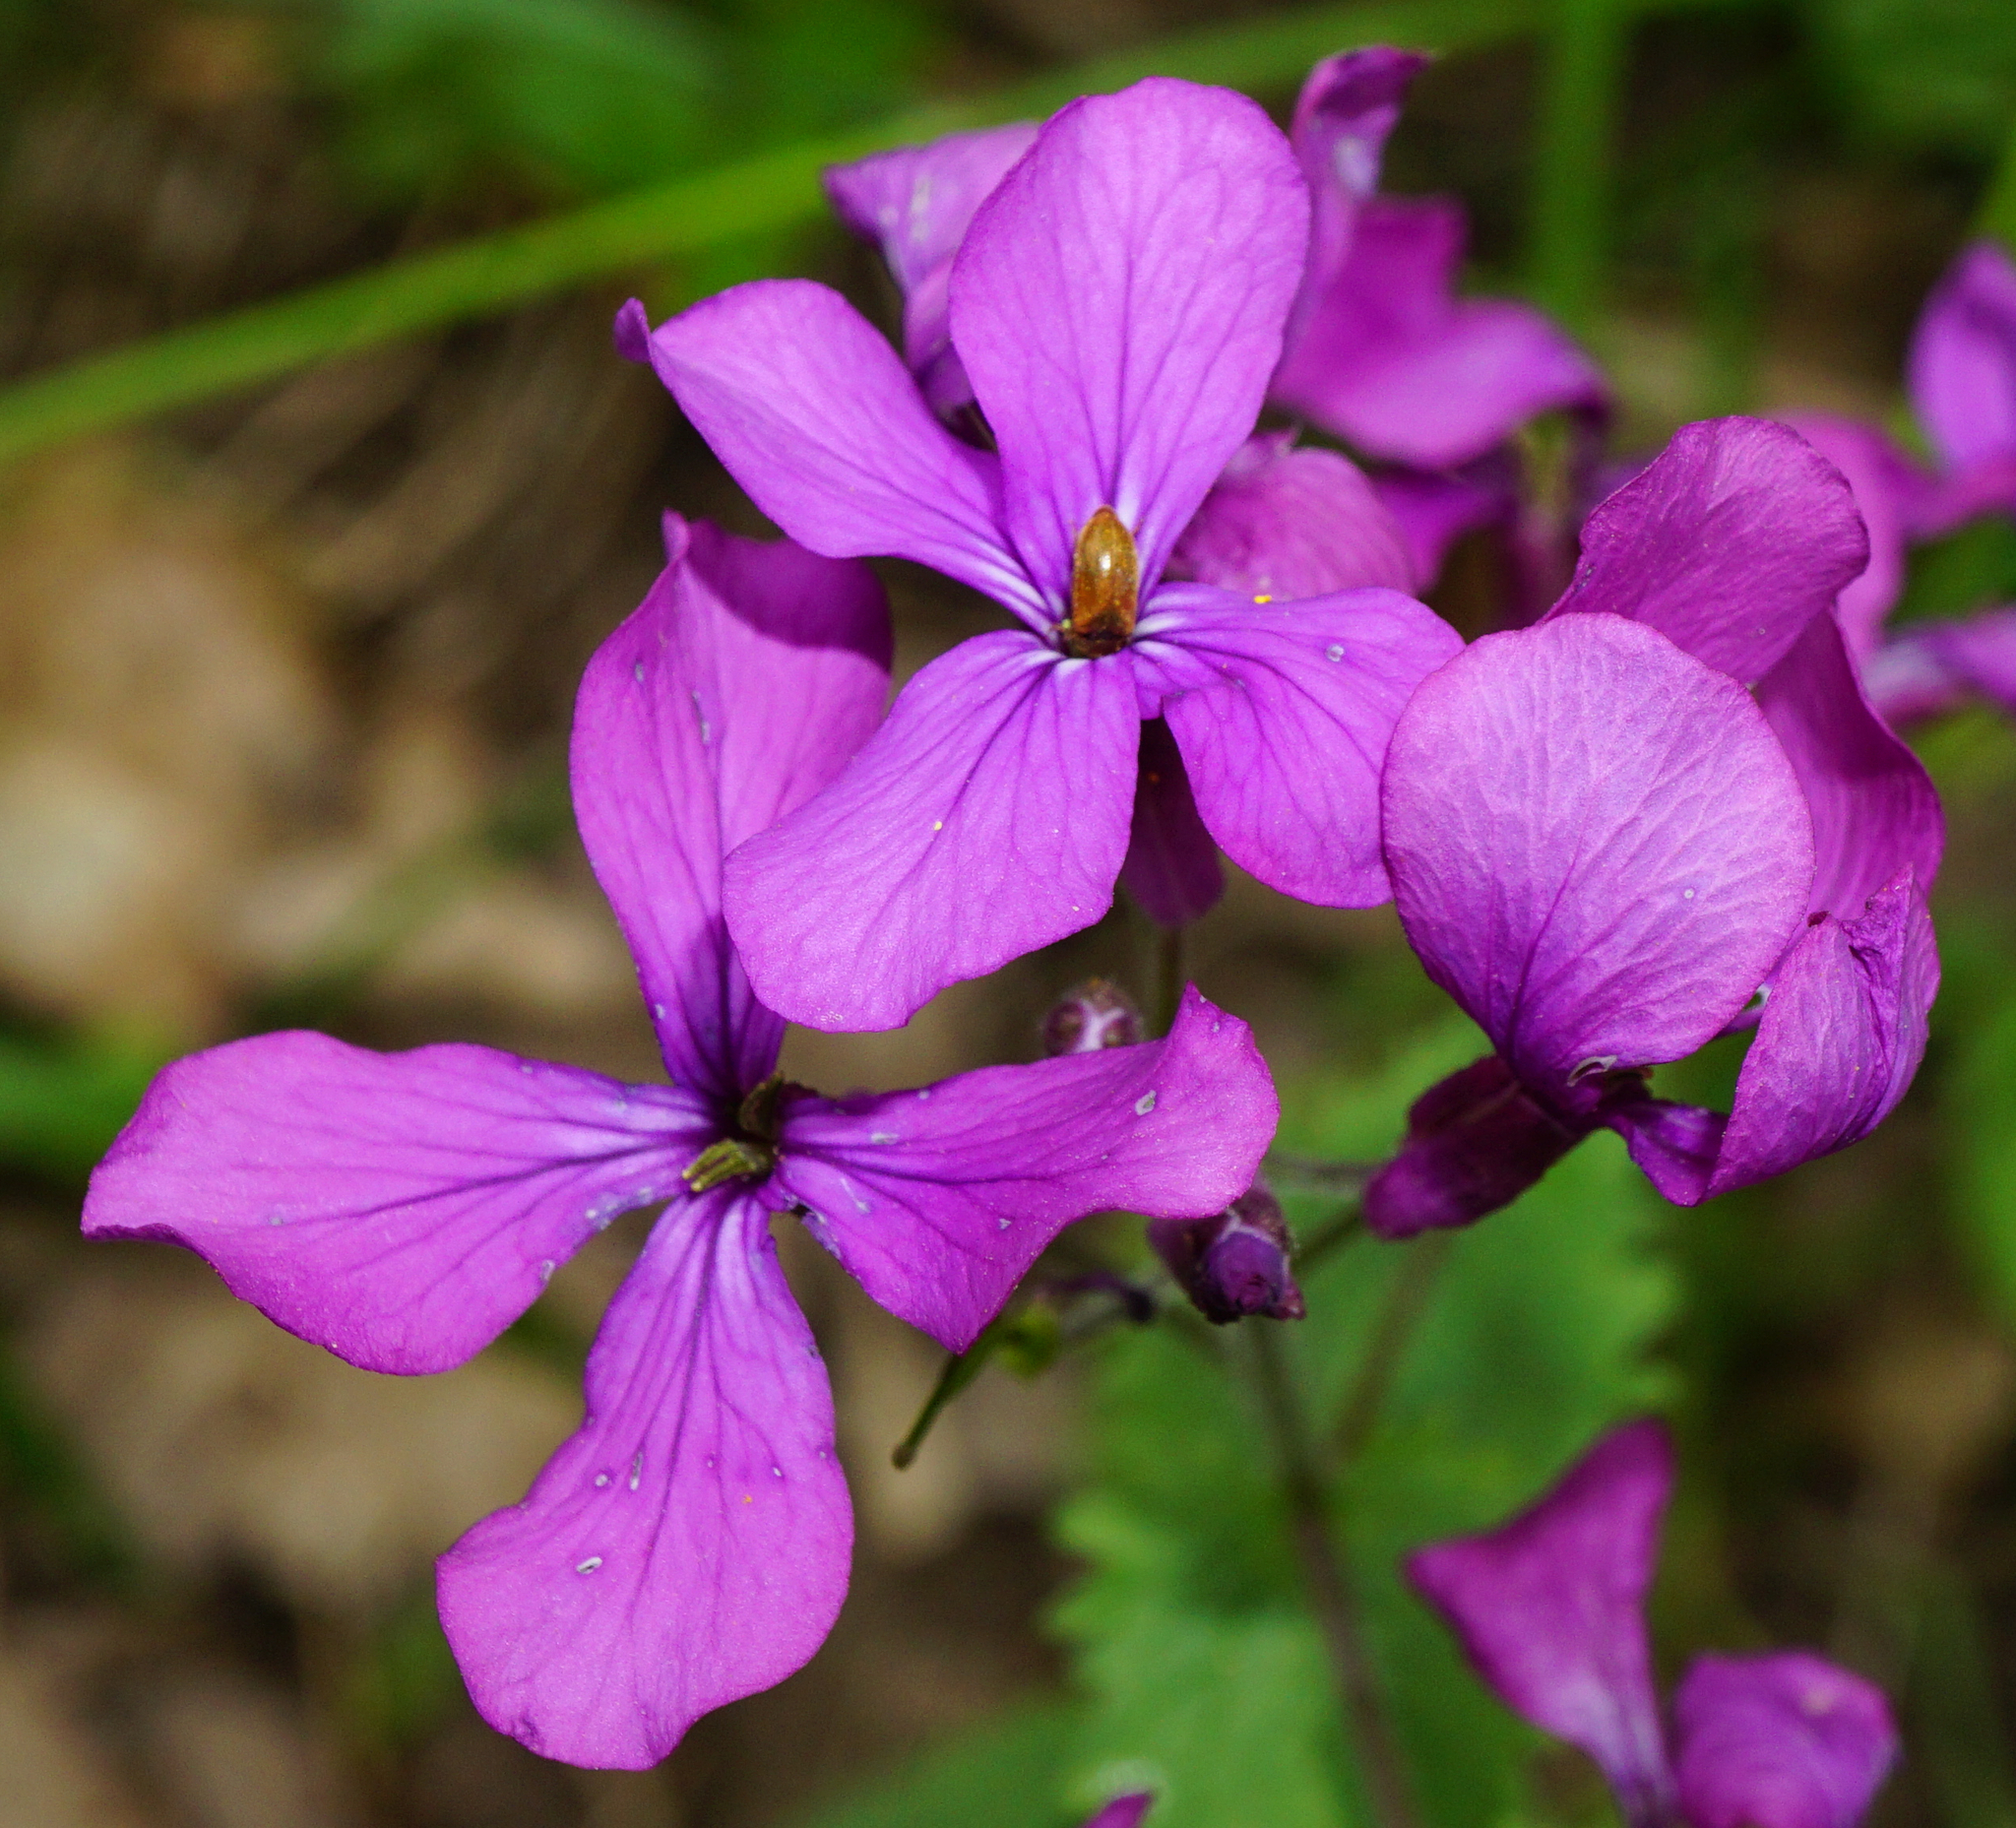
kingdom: Plantae
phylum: Tracheophyta
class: Magnoliopsida
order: Brassicales
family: Brassicaceae
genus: Lunaria
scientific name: Lunaria annua
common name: Honesty
